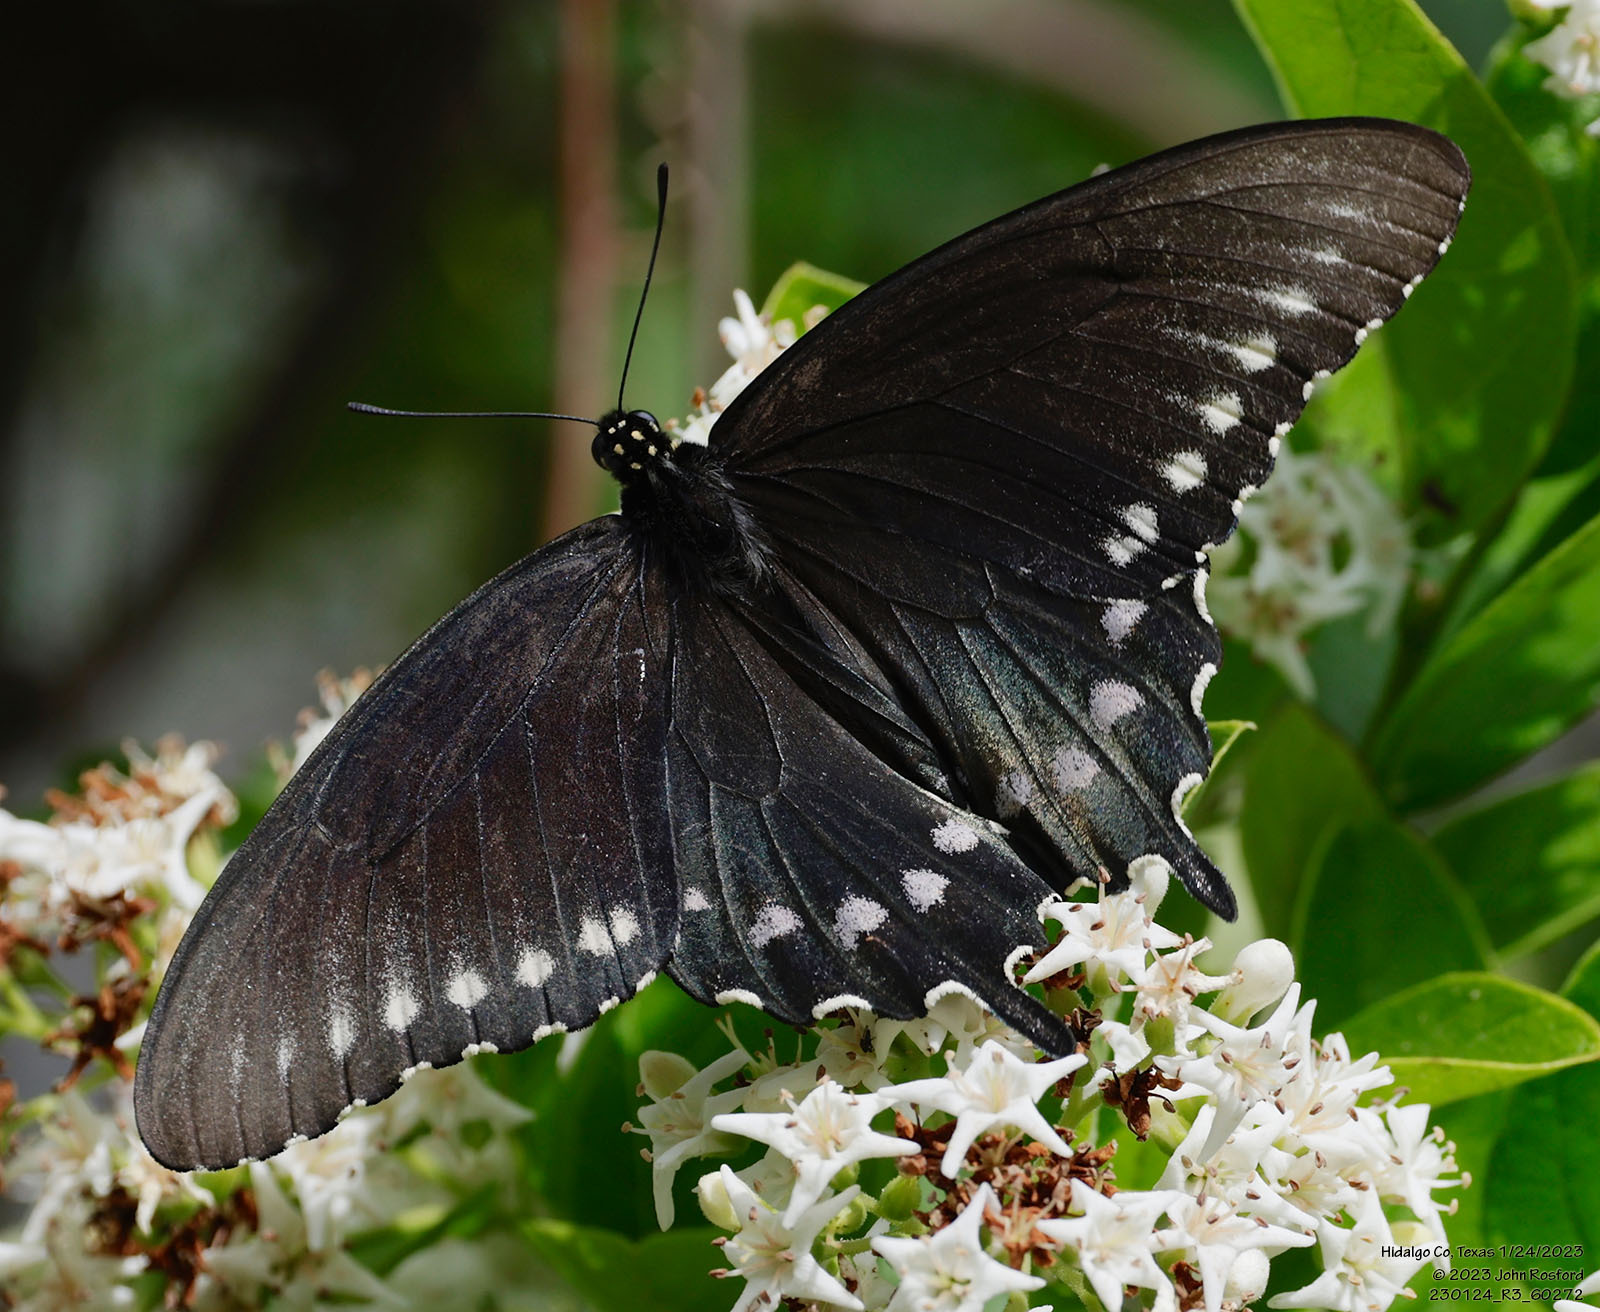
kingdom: Animalia
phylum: Arthropoda
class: Insecta
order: Lepidoptera
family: Papilionidae
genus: Battus
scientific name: Battus philenor
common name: Pipevine swallowtail
